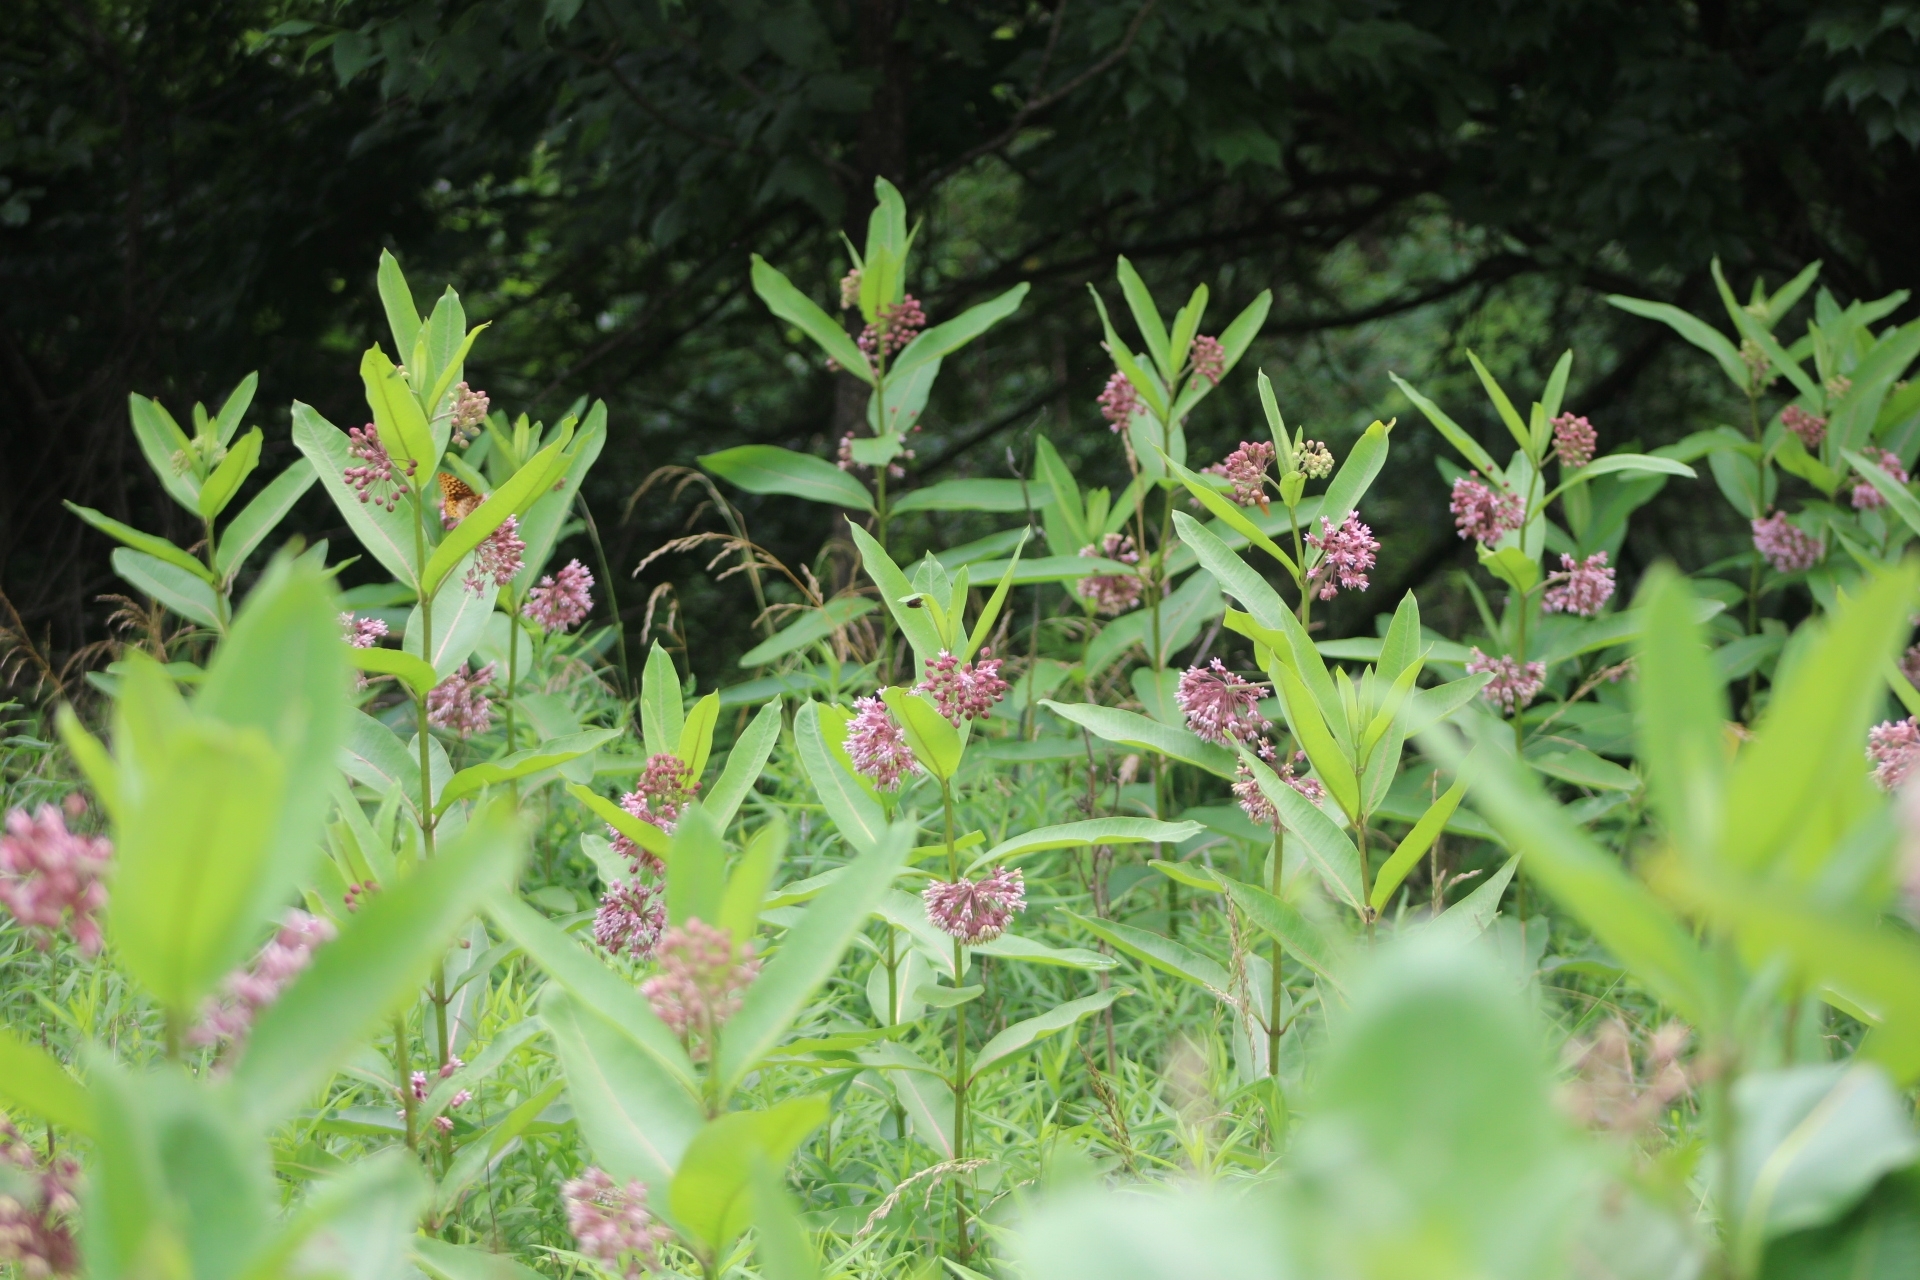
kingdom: Plantae
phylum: Tracheophyta
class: Magnoliopsida
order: Gentianales
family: Apocynaceae
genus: Asclepias
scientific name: Asclepias syriaca
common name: Common milkweed
